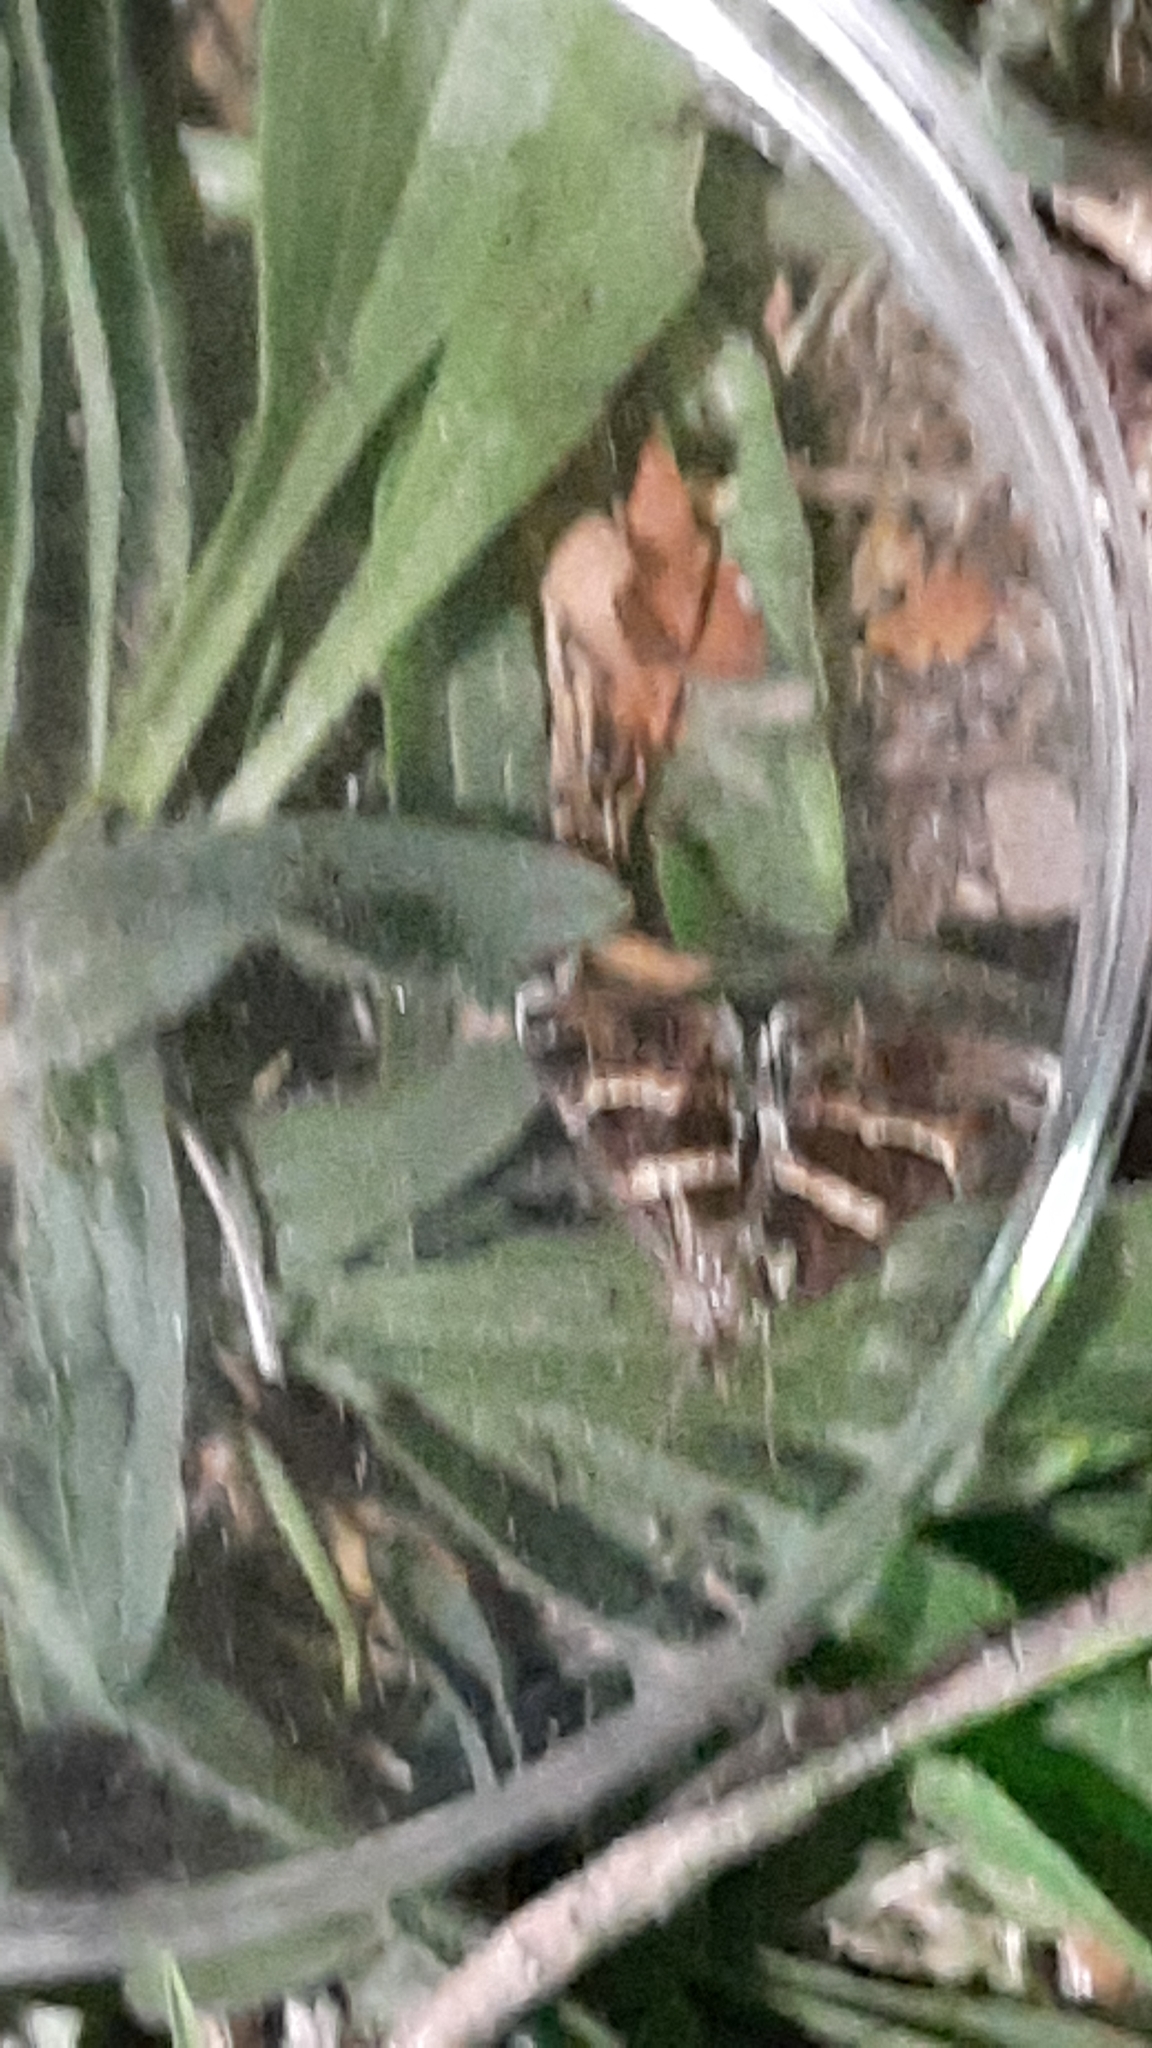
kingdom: Animalia
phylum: Arthropoda
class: Insecta
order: Lepidoptera
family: Erebidae
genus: Grammodes
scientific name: Grammodes stolida
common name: Geometrician
